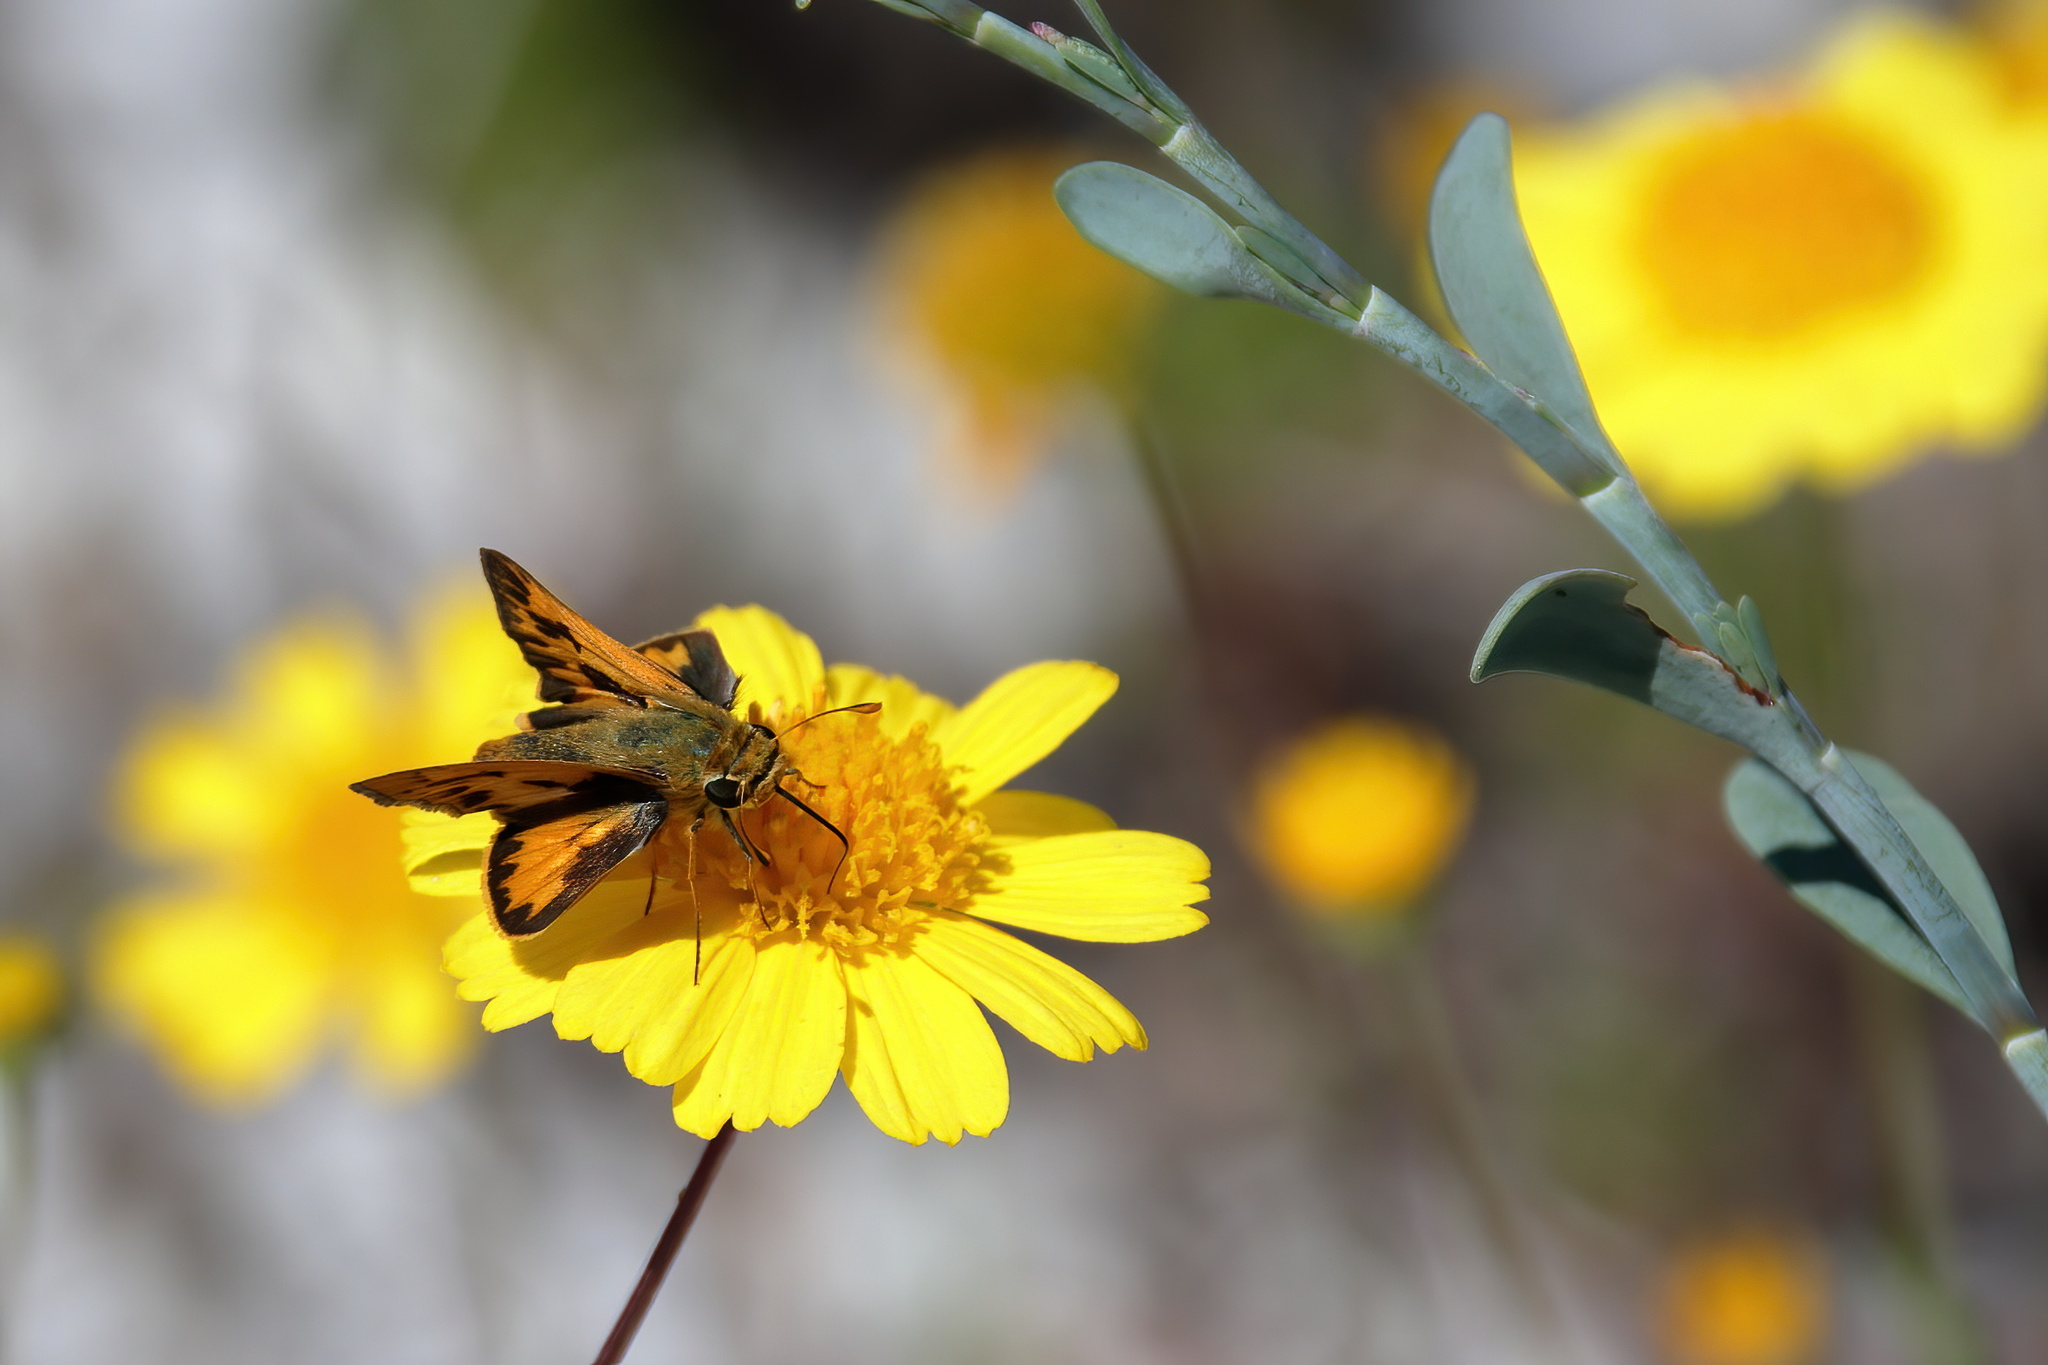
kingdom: Animalia
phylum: Arthropoda
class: Insecta
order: Lepidoptera
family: Hesperiidae
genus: Hylephila
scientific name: Hylephila phyleus
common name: Fiery skipper
